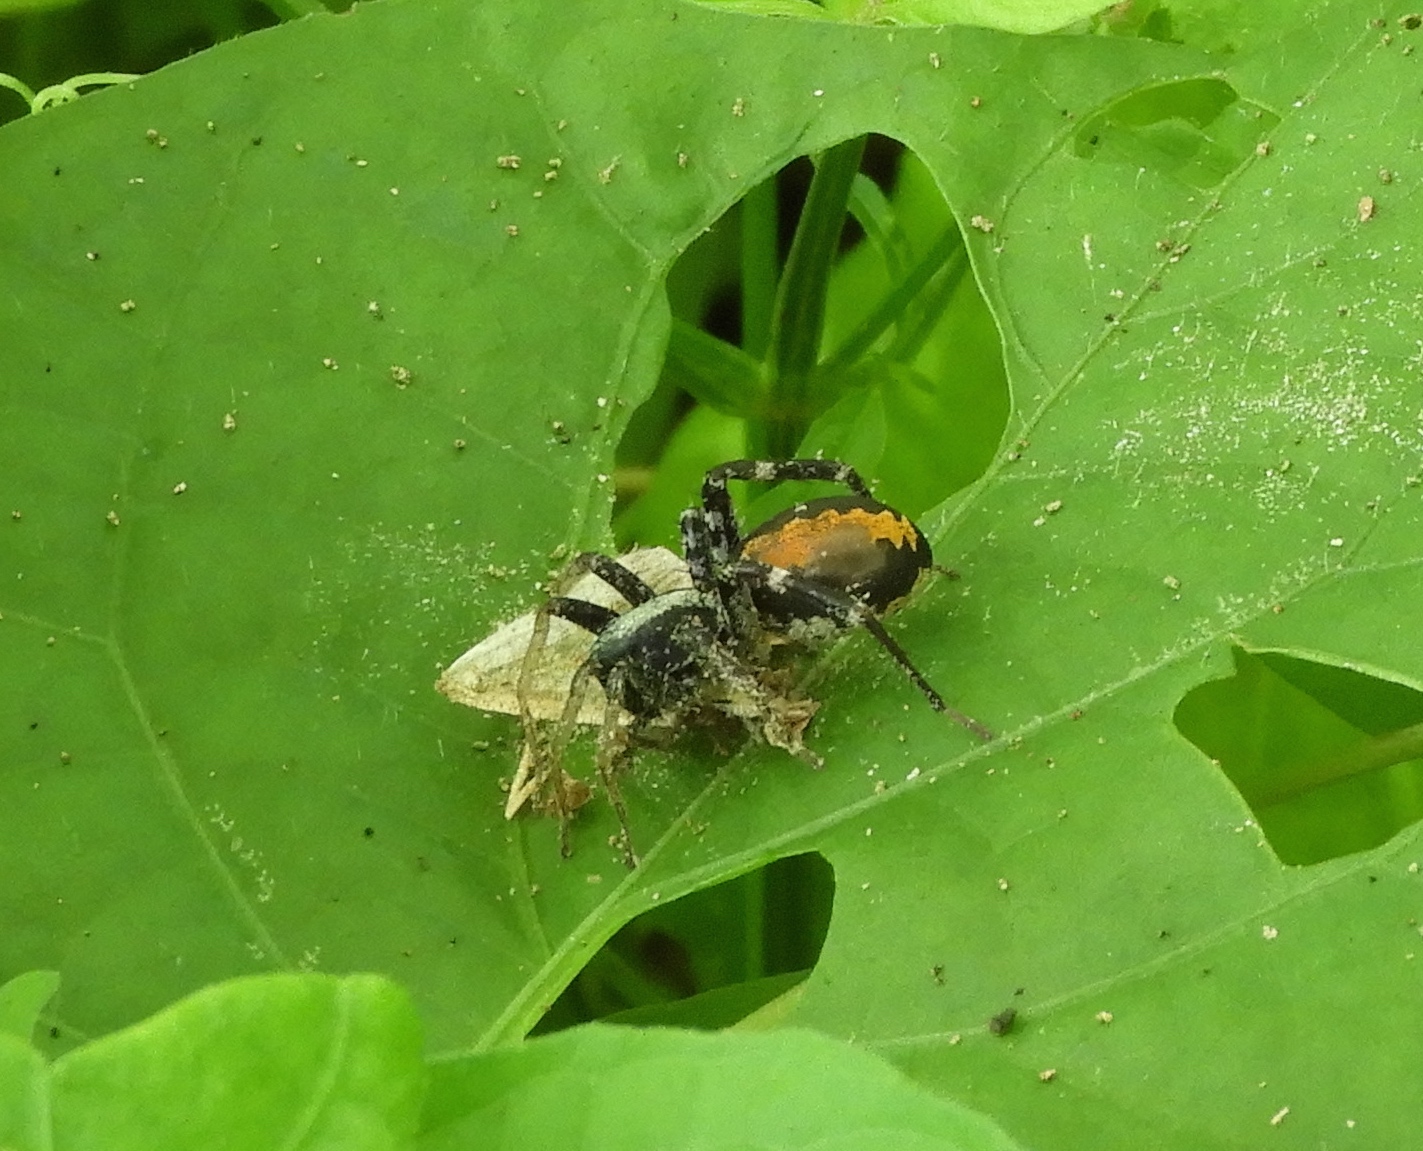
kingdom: Animalia
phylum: Arthropoda
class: Arachnida
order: Araneae
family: Corinnidae
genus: Castianeira
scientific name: Castianeira
